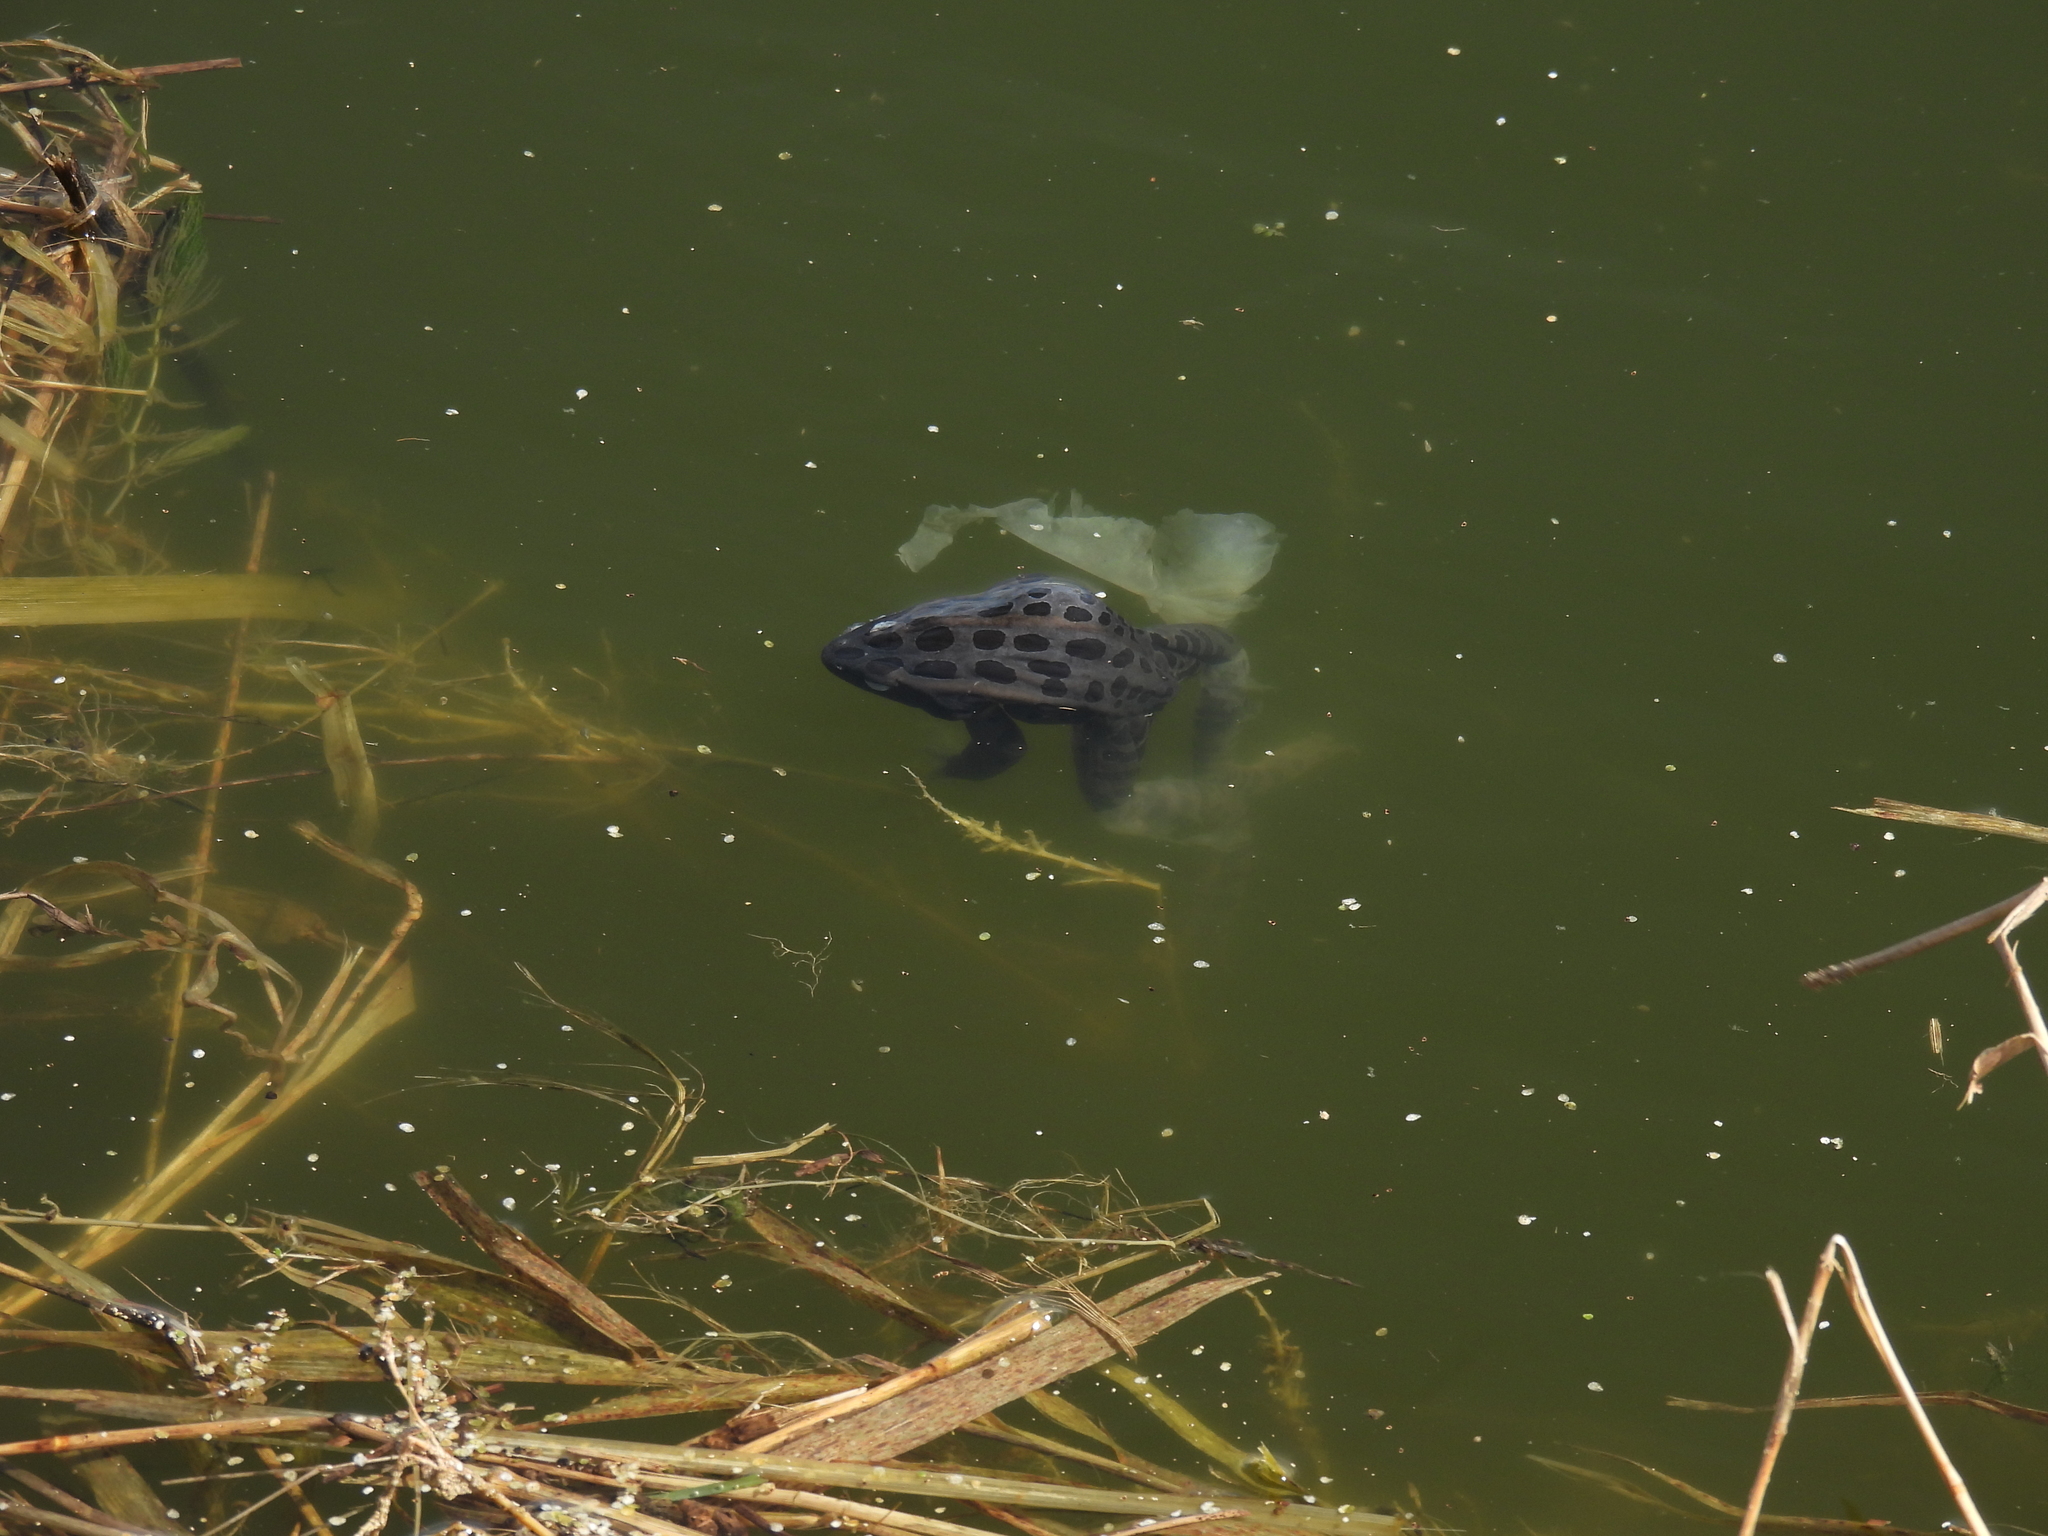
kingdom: Animalia
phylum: Chordata
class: Amphibia
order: Anura
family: Ranidae
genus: Lithobates
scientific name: Lithobates pipiens
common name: Northern leopard frog
